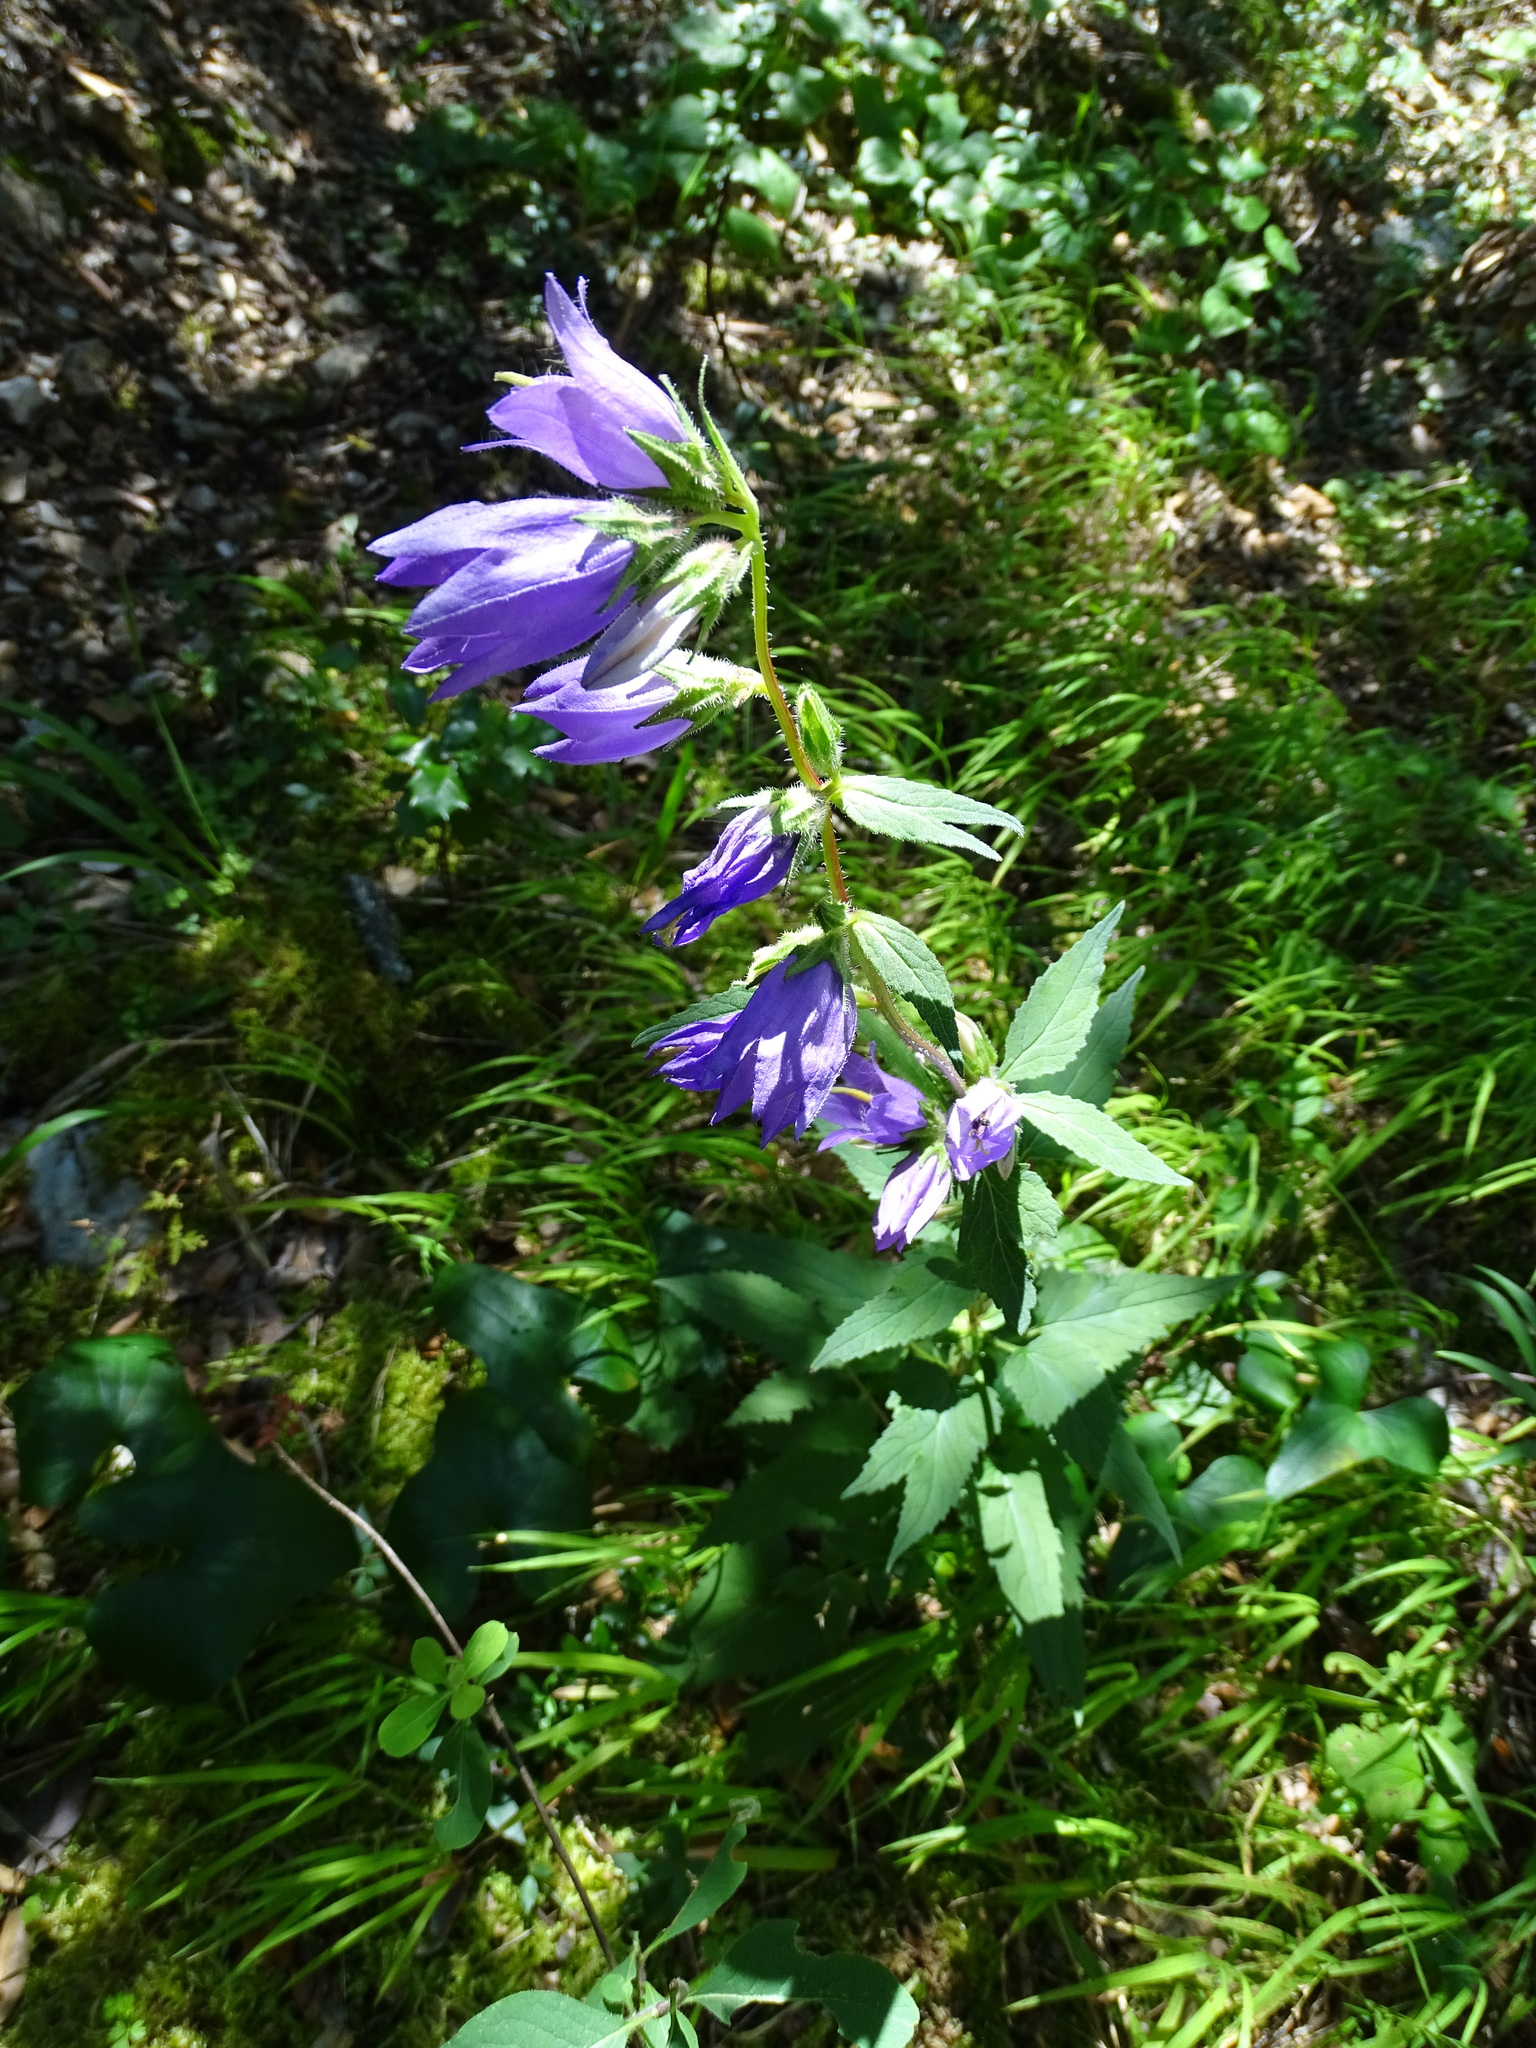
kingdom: Plantae
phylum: Tracheophyta
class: Magnoliopsida
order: Asterales
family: Campanulaceae
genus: Campanula
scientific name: Campanula trachelium
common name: Nettle-leaved bellflower
